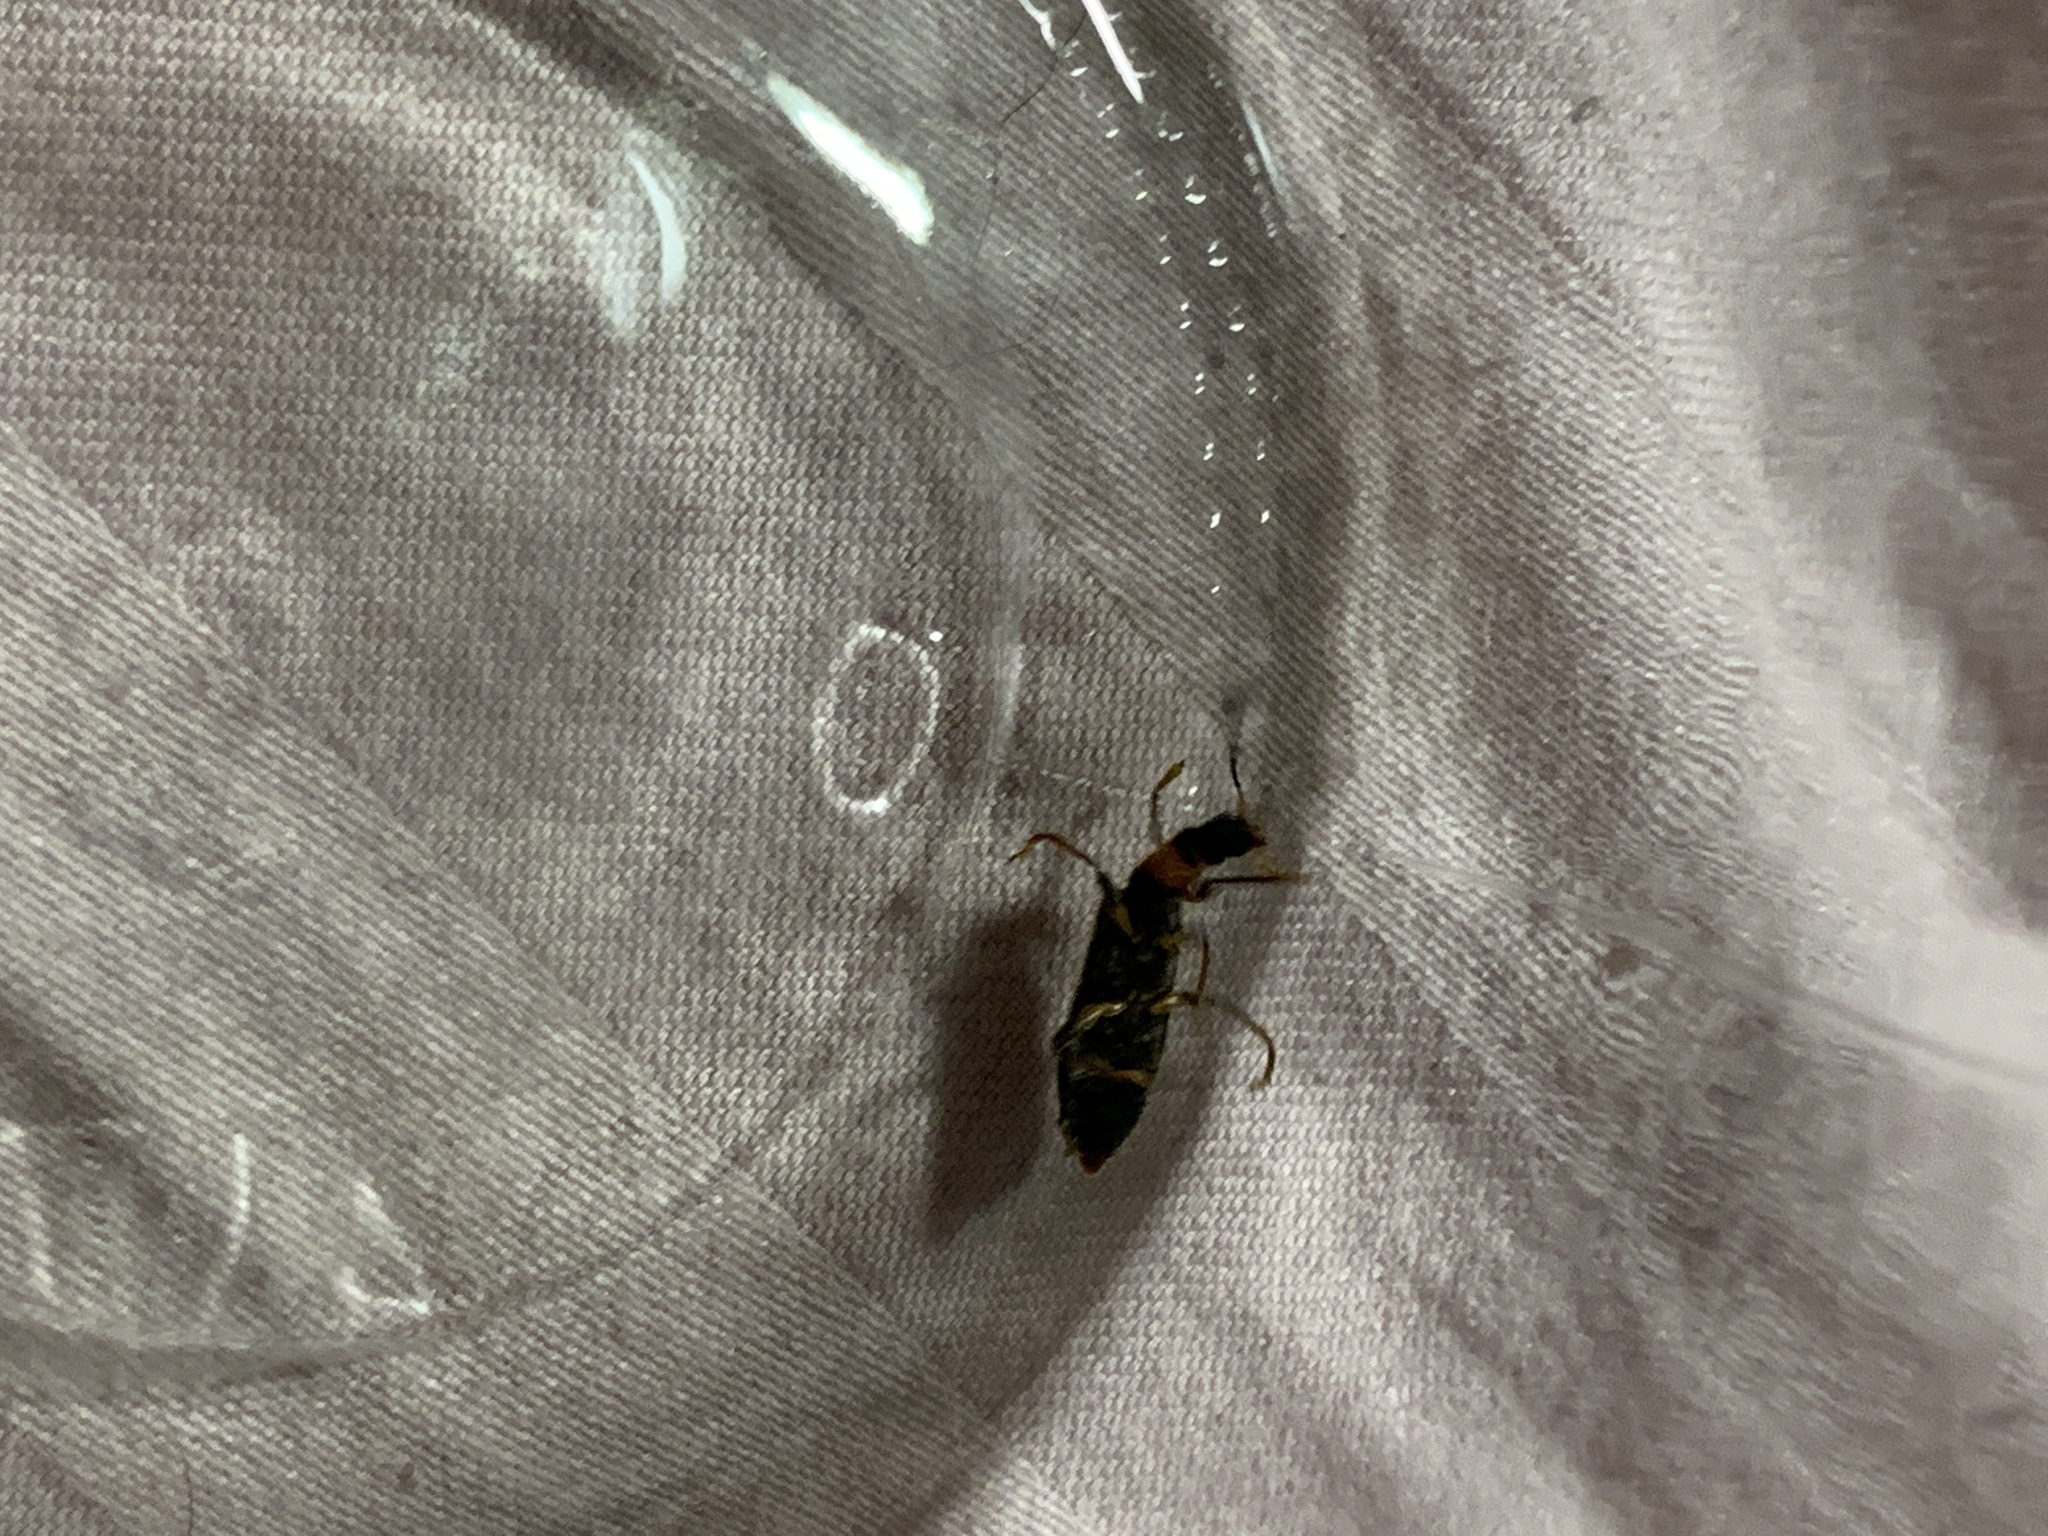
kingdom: Animalia
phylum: Arthropoda
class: Insecta
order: Coleoptera
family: Cleridae
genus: Cymatodera
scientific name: Cymatodera bicolor
